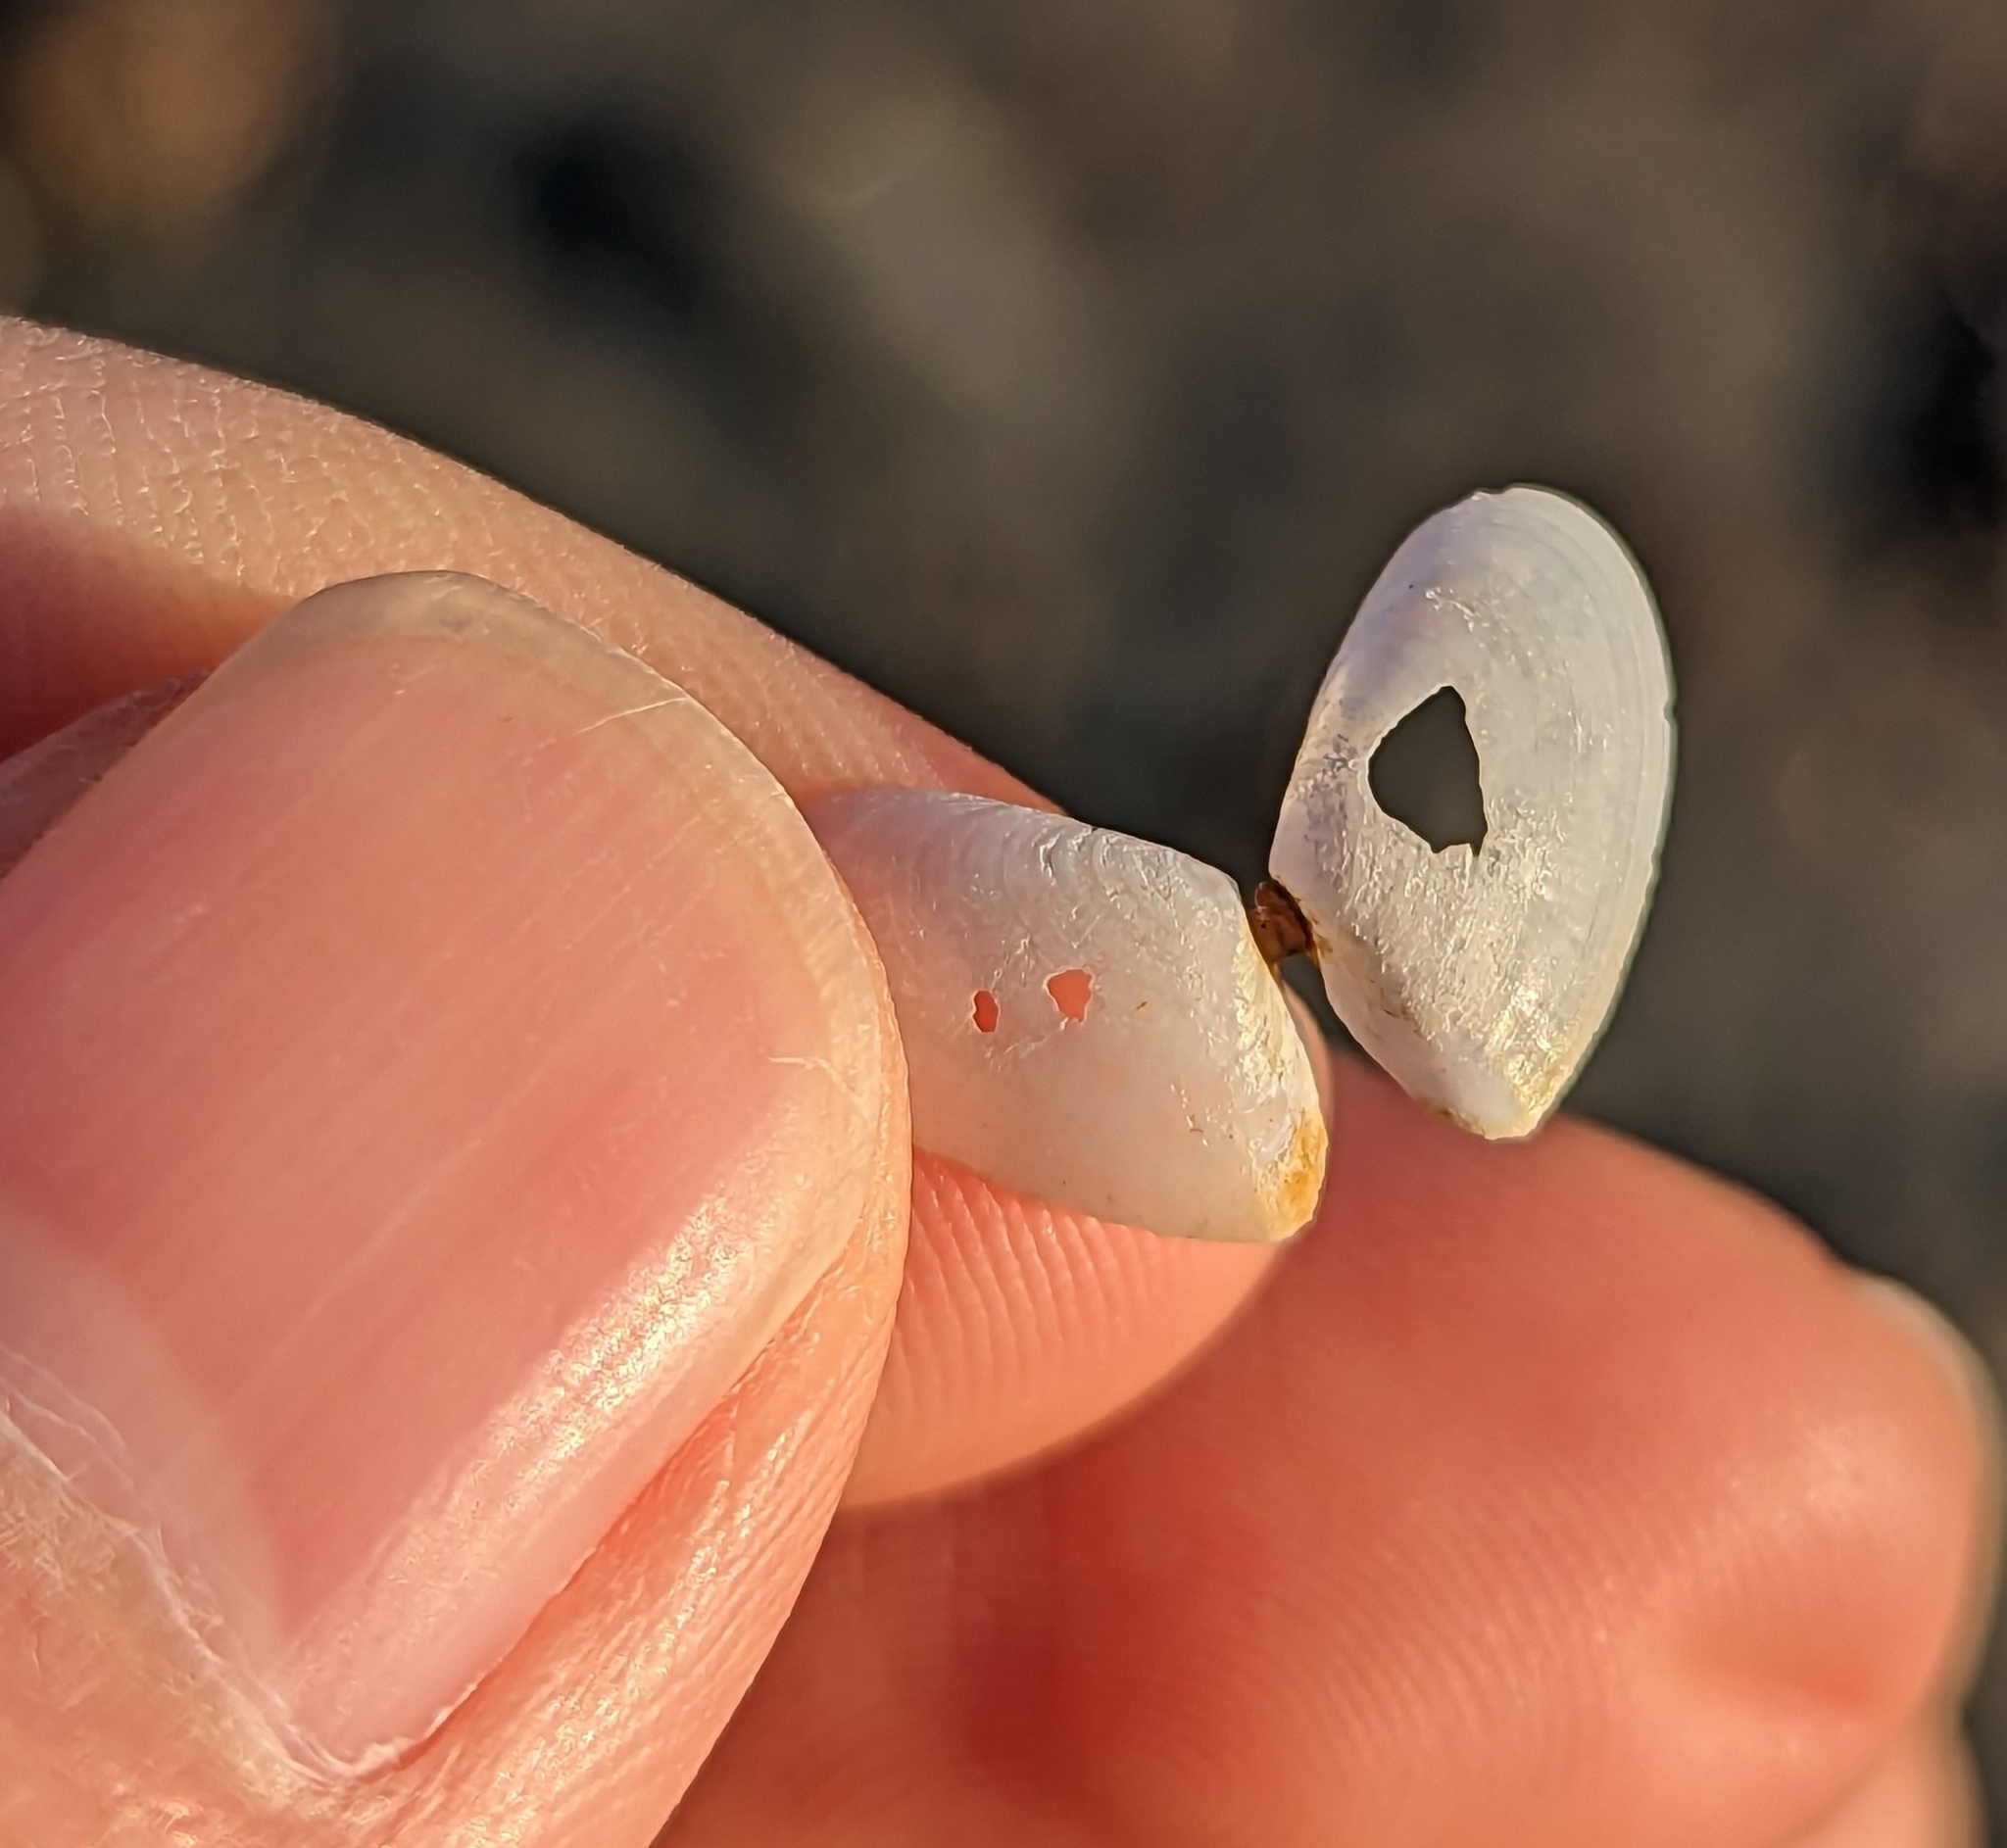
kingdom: Animalia
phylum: Mollusca
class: Bivalvia
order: Cardiida
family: Tellinidae
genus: Ameritella
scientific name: Ameritella agilis
